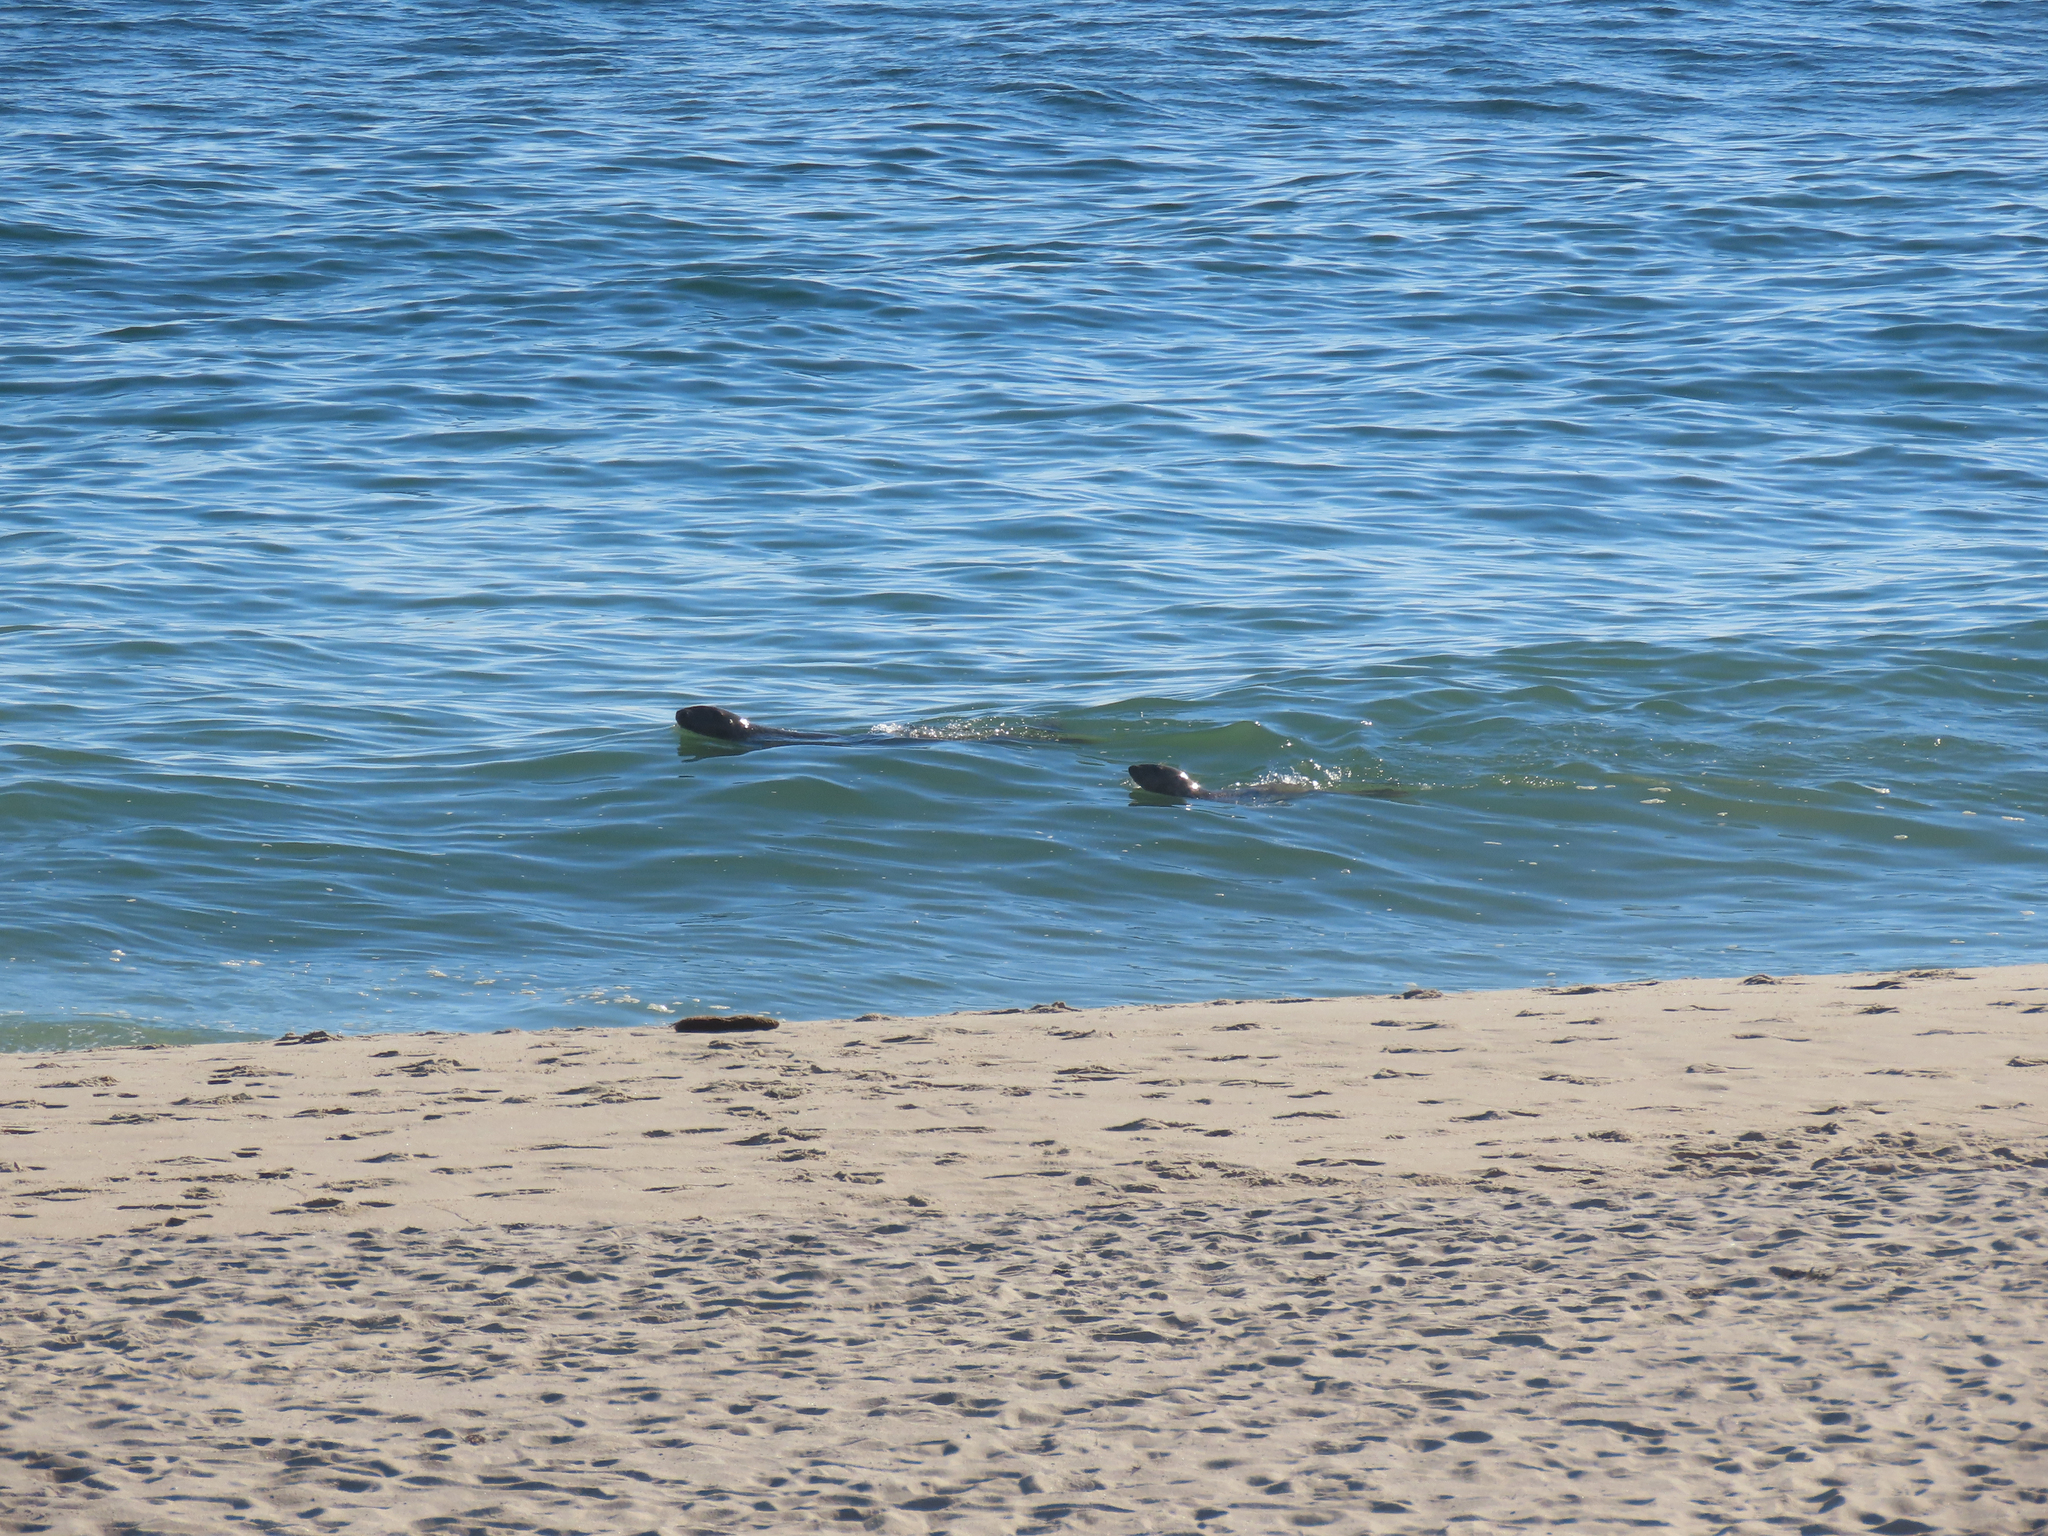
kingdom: Animalia
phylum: Chordata
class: Mammalia
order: Carnivora
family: Phocidae
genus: Halichoerus
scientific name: Halichoerus grypus
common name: Grey seal
